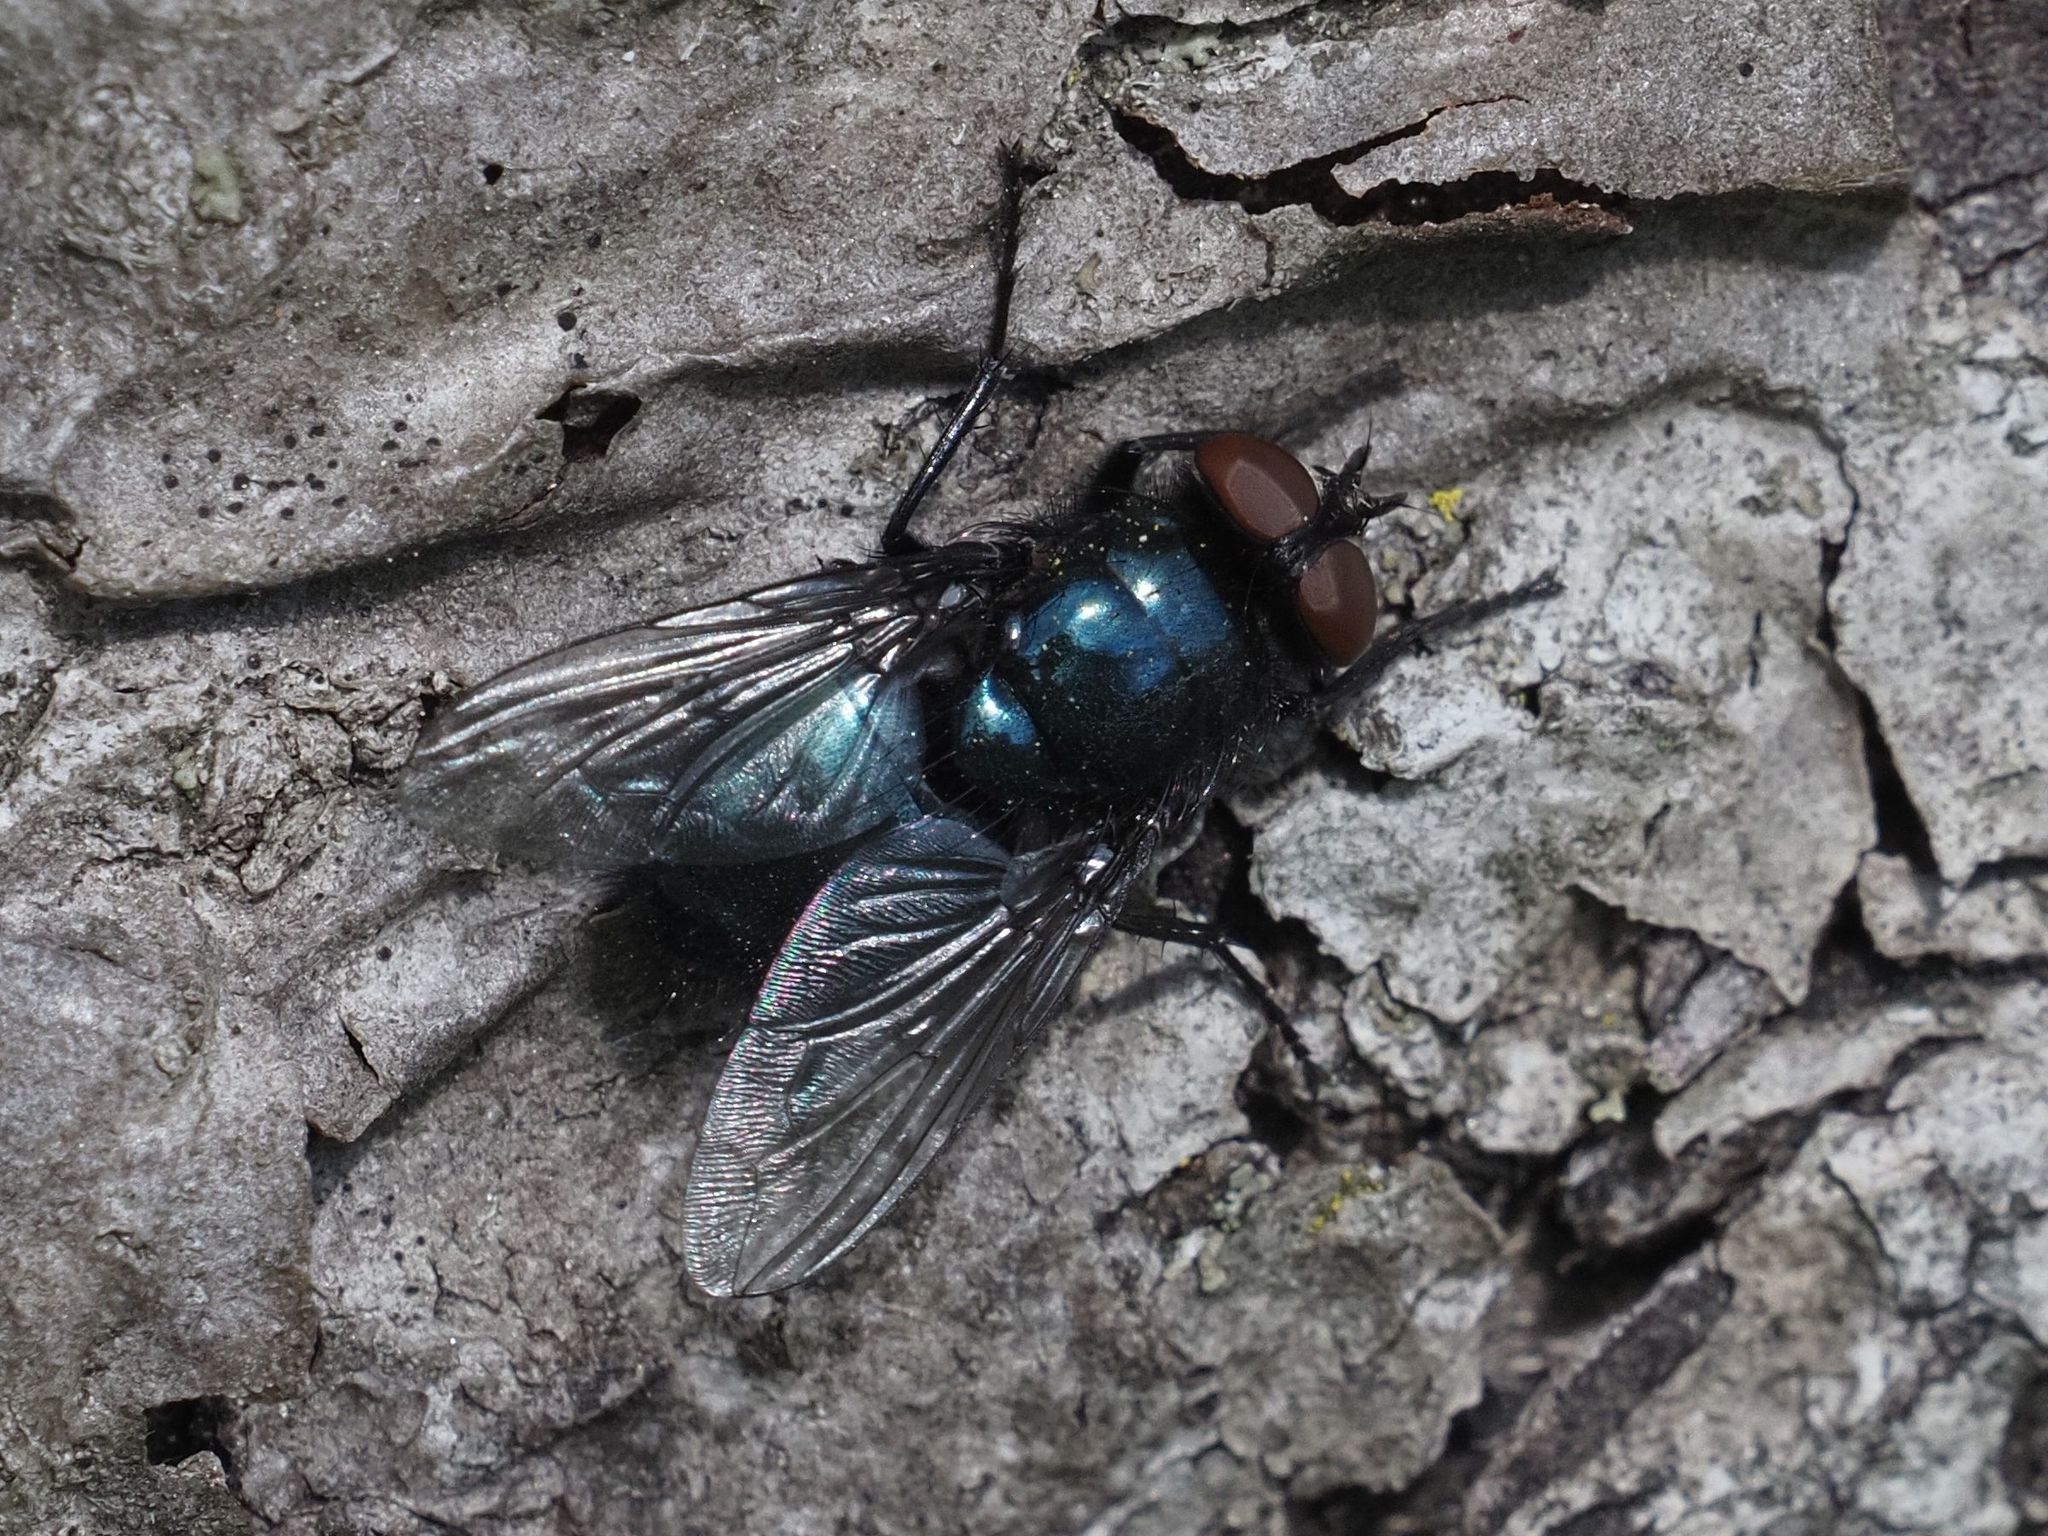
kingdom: Animalia
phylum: Arthropoda
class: Insecta
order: Diptera
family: Calliphoridae
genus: Protophormia
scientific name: Protophormia terraenovae
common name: Blackbottle
